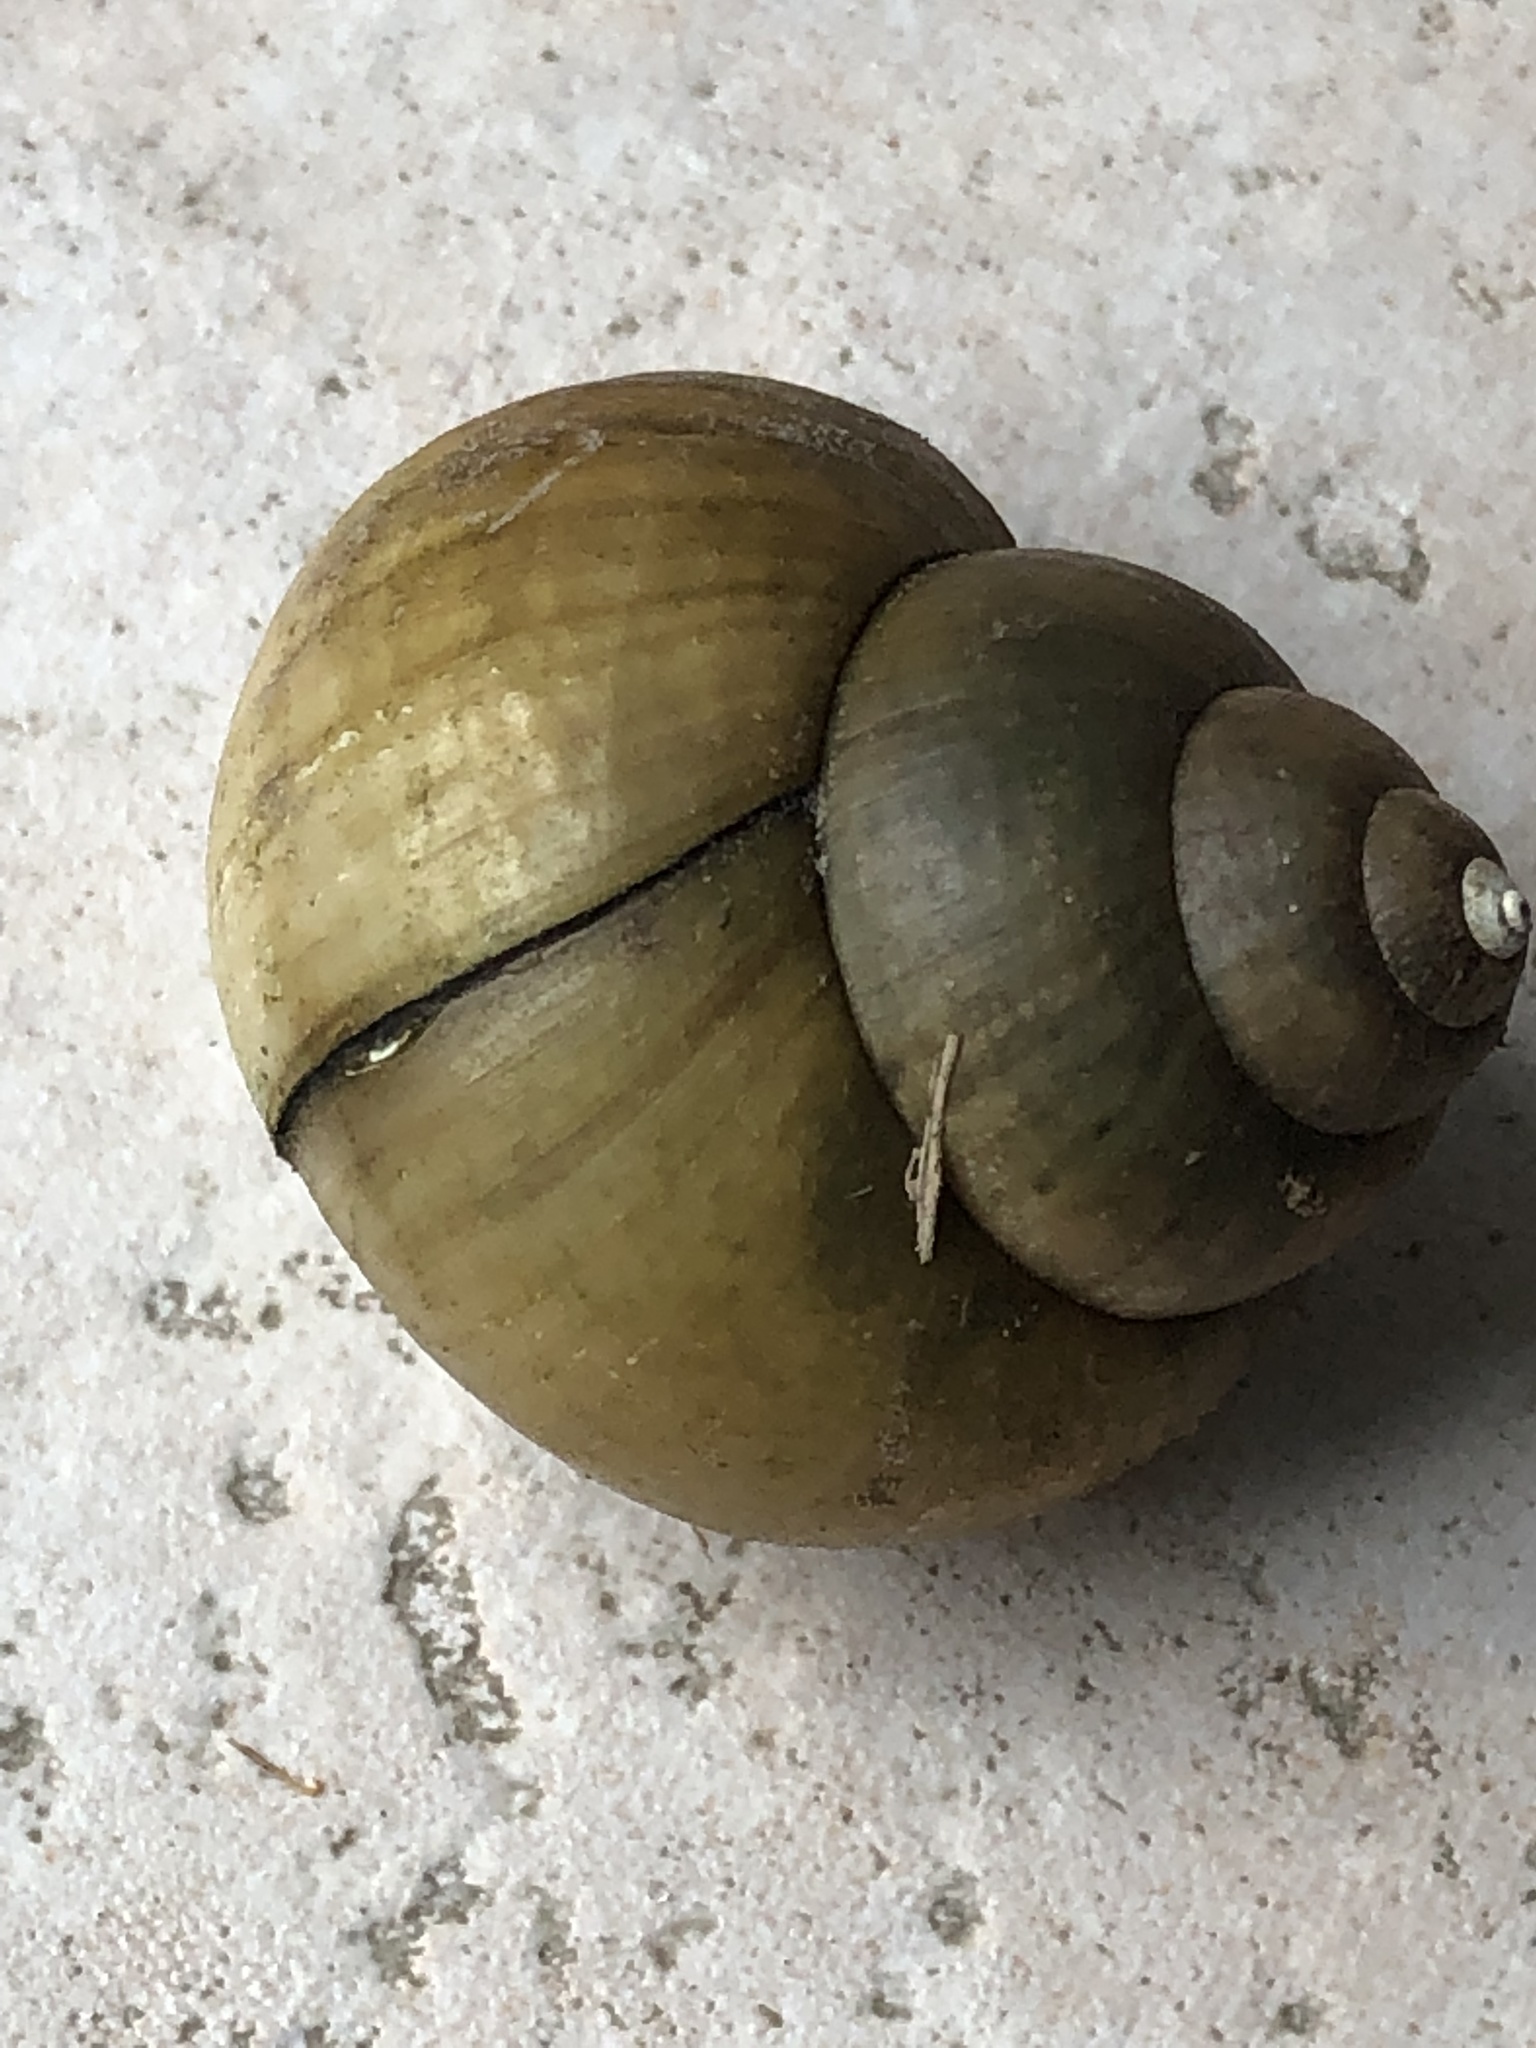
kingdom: Animalia
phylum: Mollusca
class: Gastropoda
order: Architaenioglossa
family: Viviparidae
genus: Cipangopaludina
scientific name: Cipangopaludina chinensis
